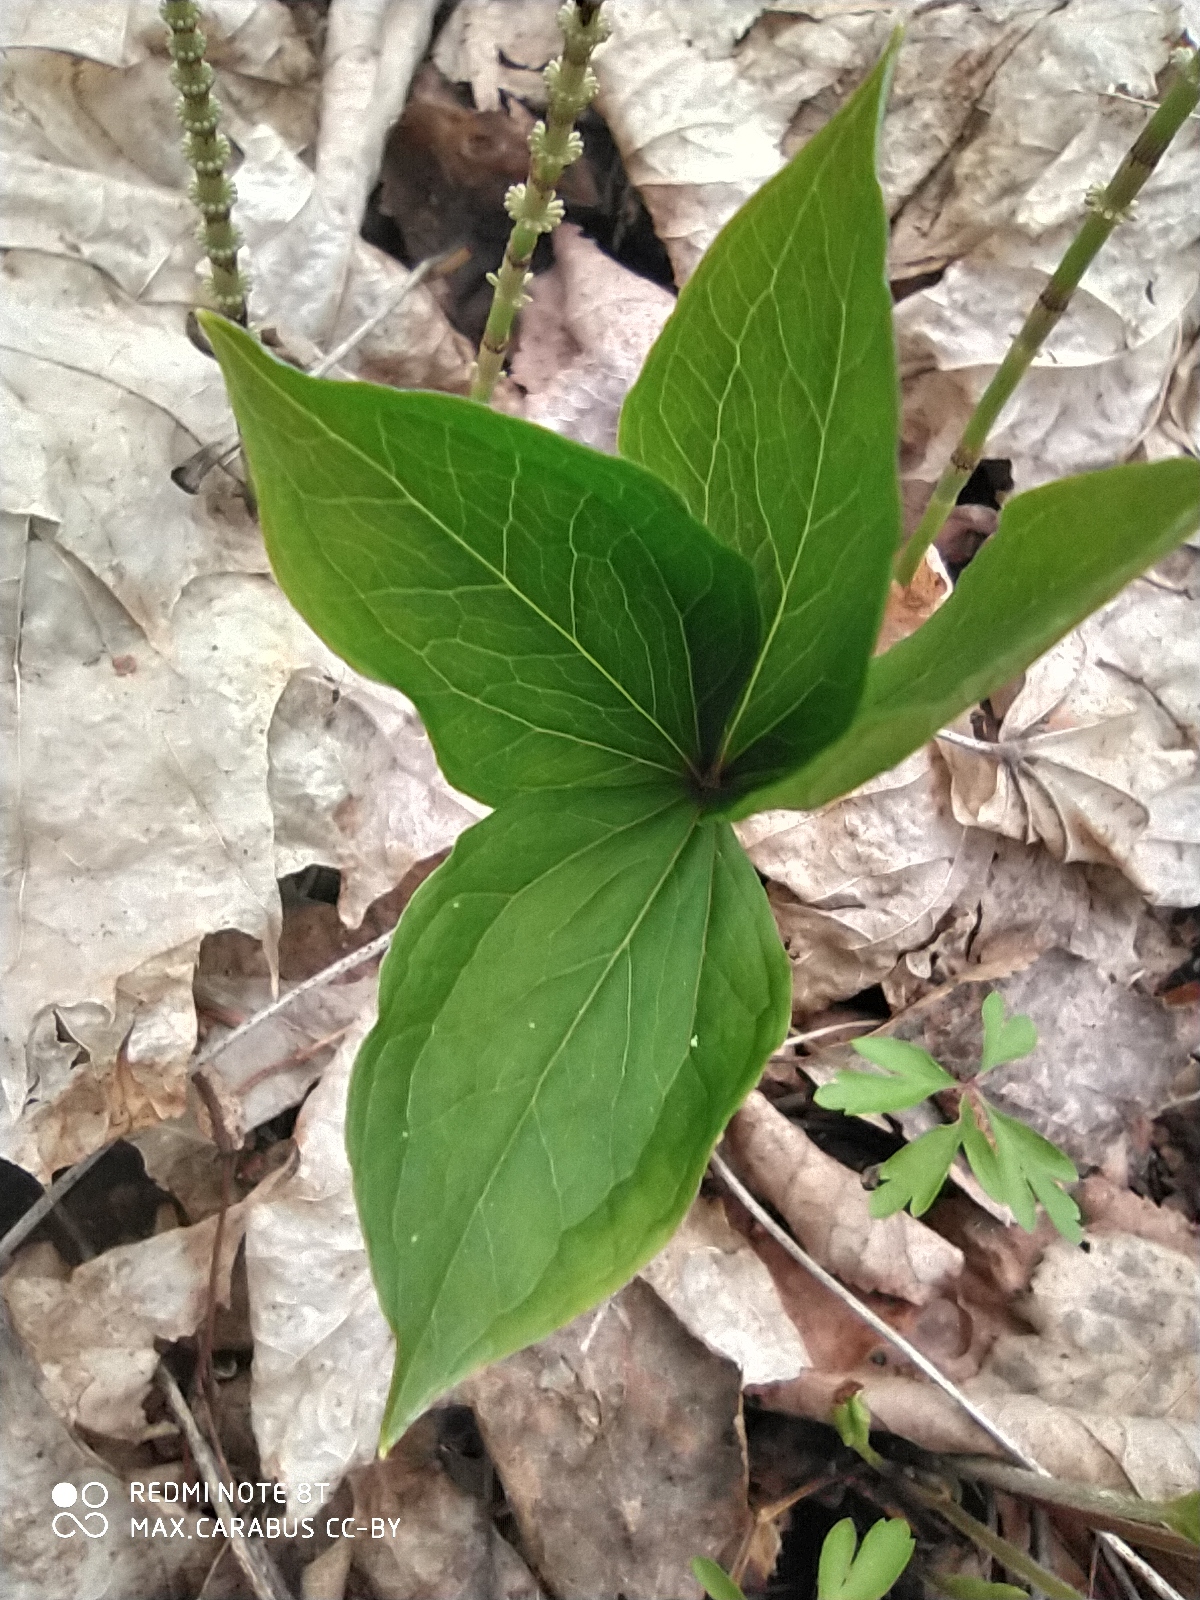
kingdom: Plantae
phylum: Tracheophyta
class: Liliopsida
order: Liliales
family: Melanthiaceae
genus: Paris
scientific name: Paris quadrifolia
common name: Herb-paris
